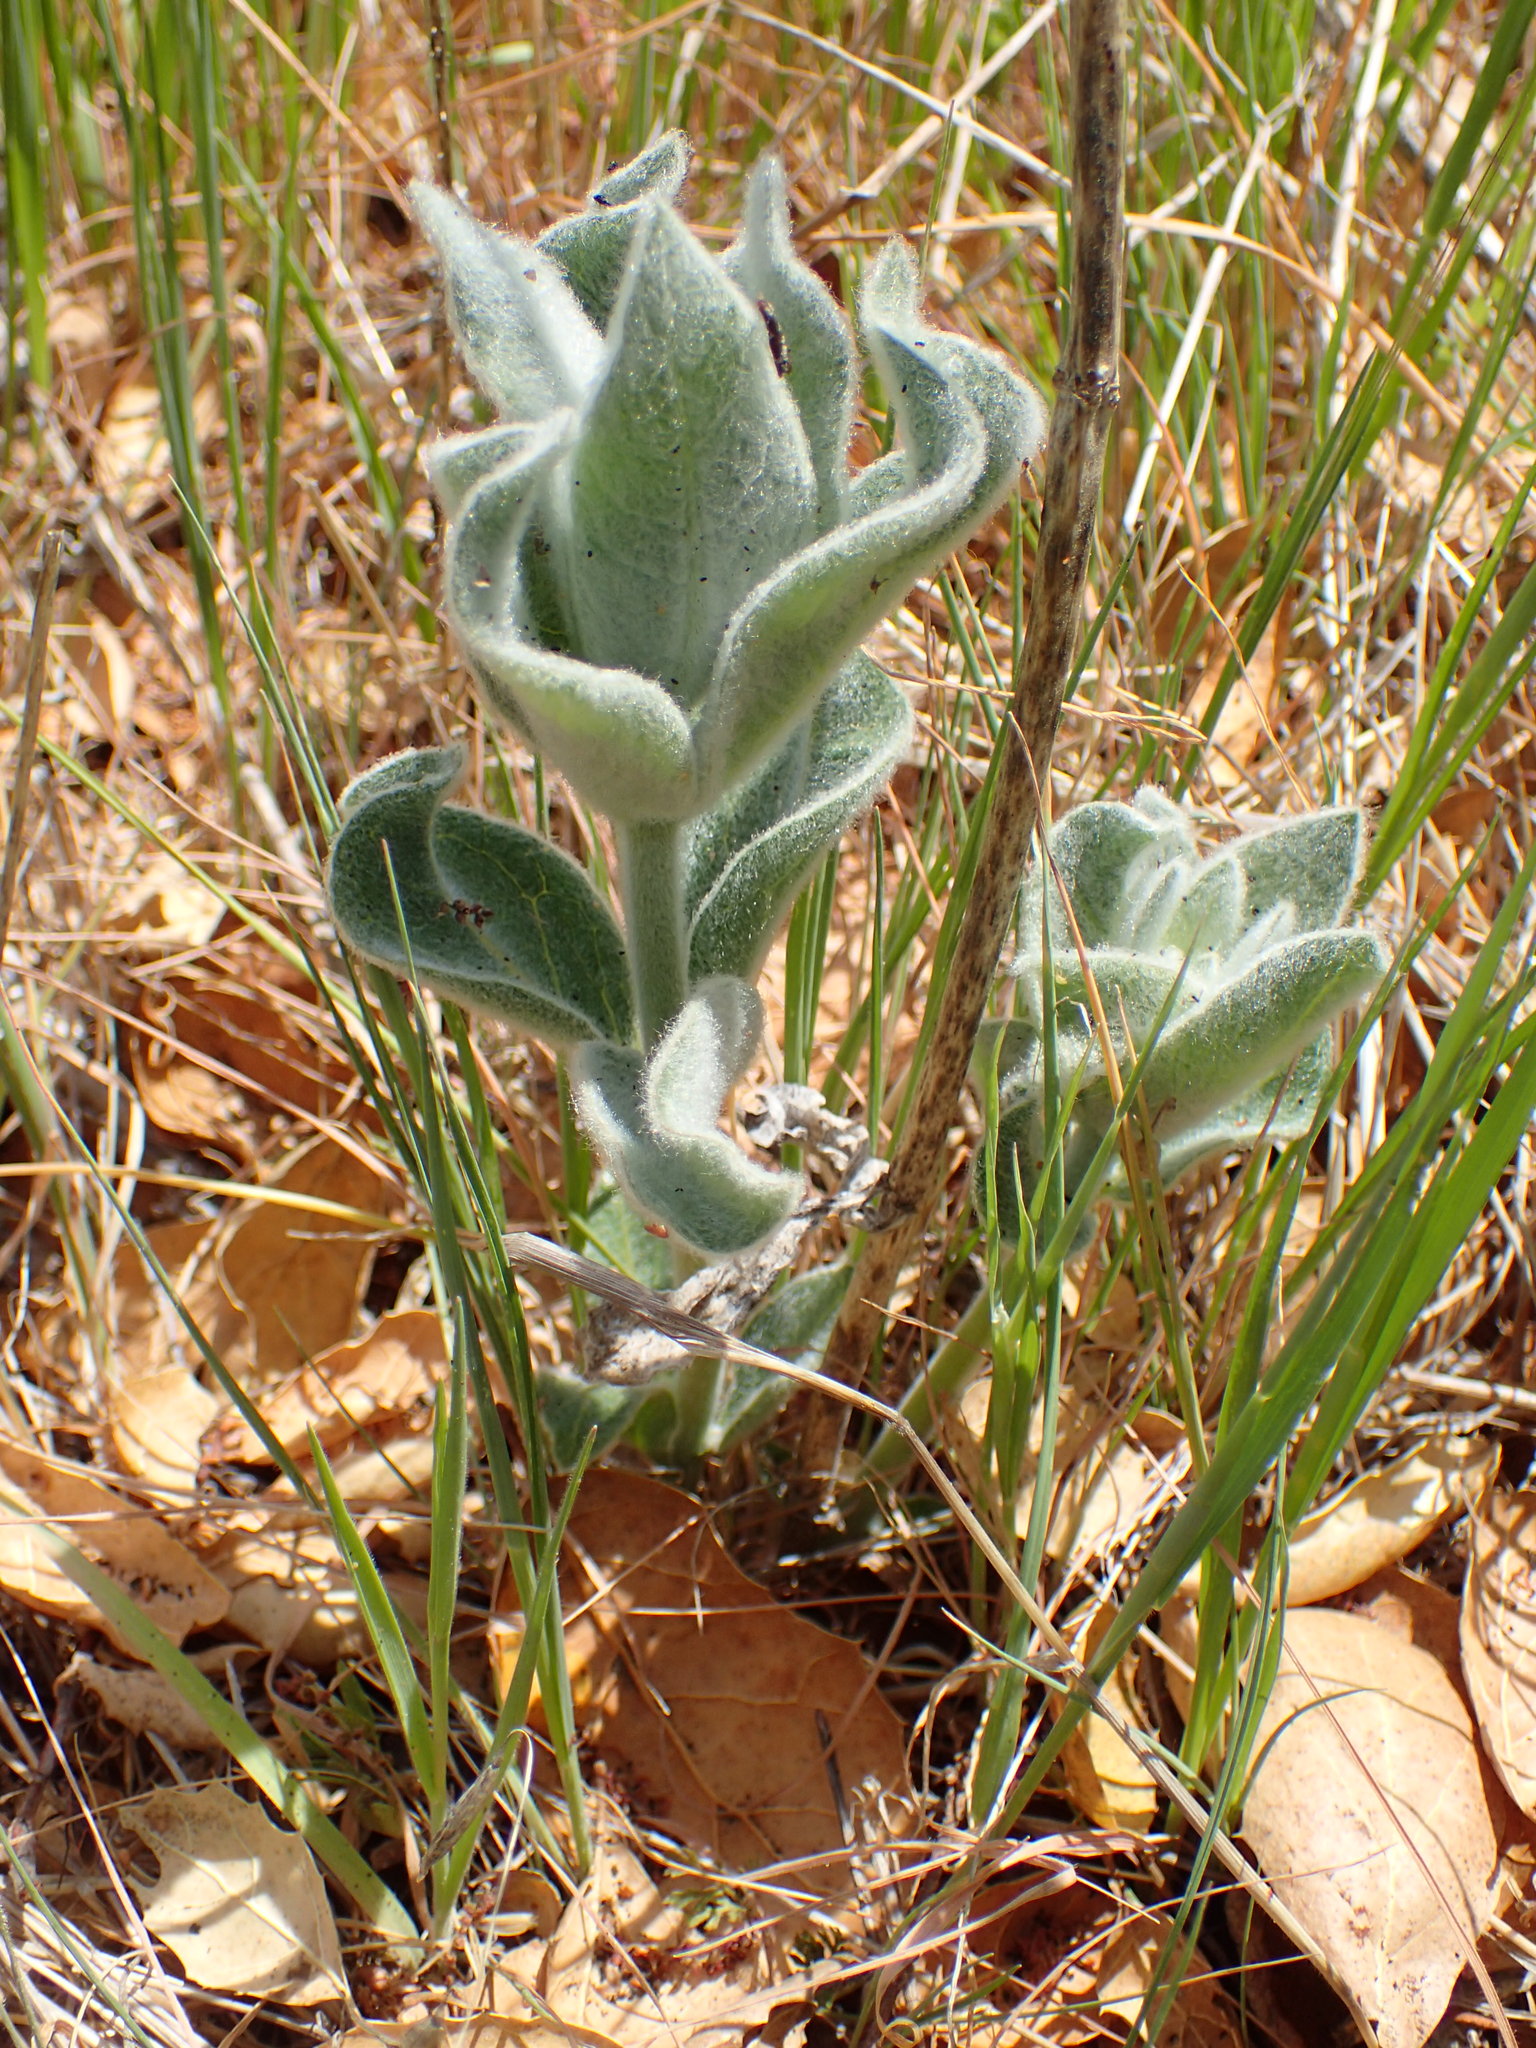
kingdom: Plantae
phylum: Tracheophyta
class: Magnoliopsida
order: Gentianales
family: Apocynaceae
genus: Asclepias
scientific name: Asclepias eriocarpa
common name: Indian milkweed
